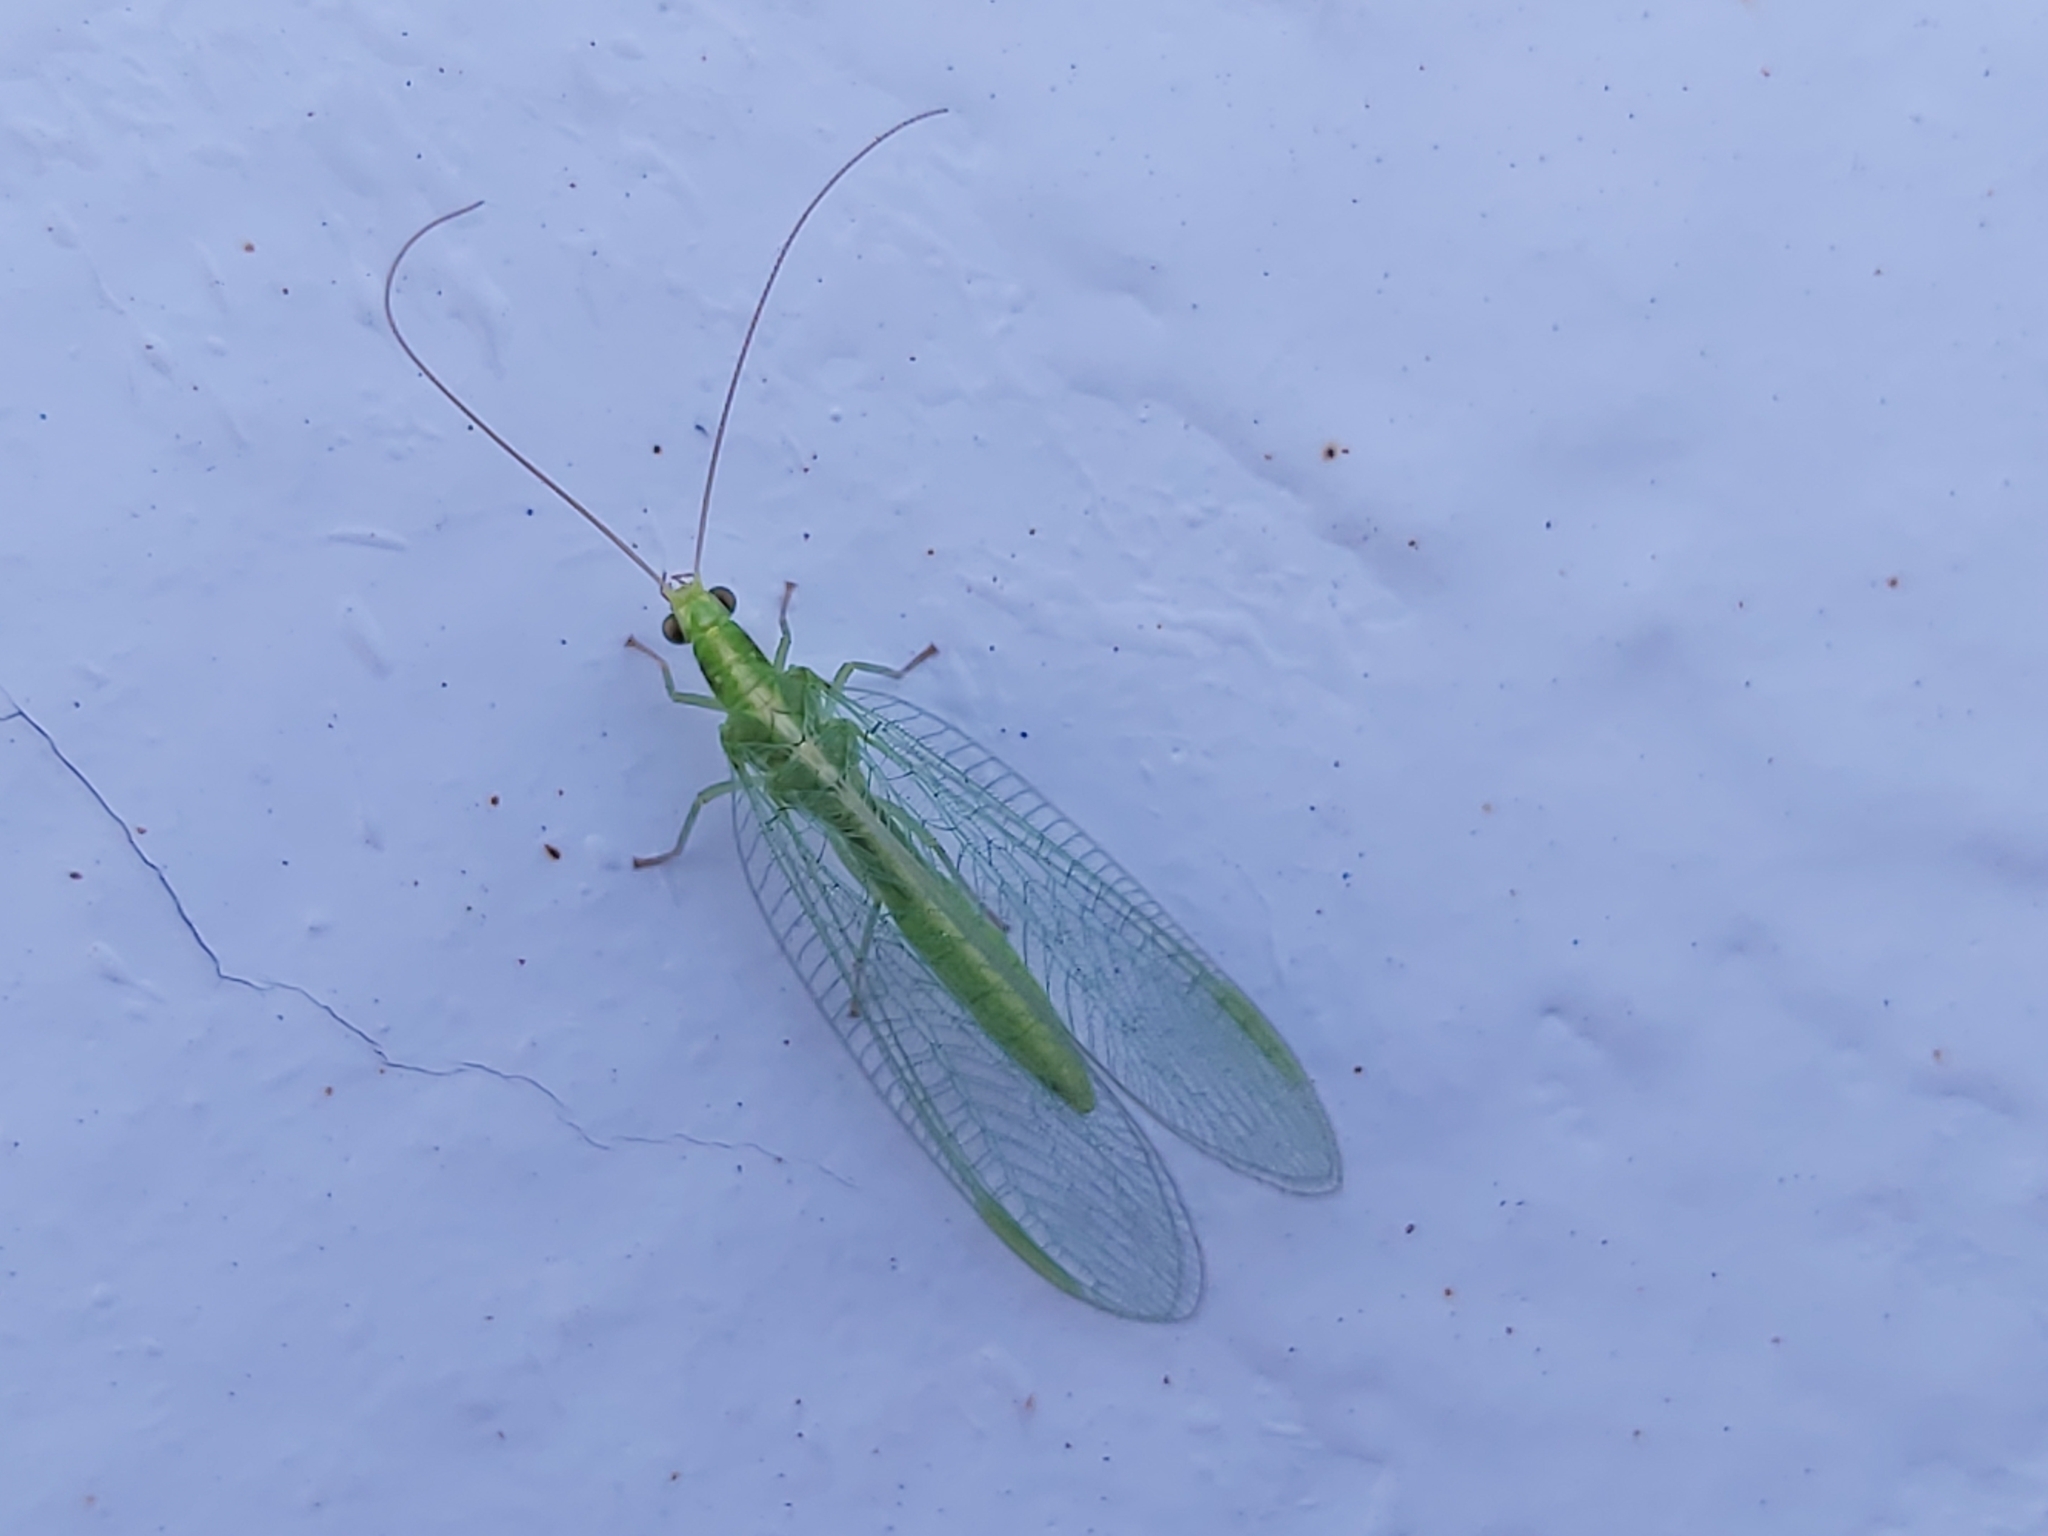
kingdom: Animalia
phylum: Arthropoda
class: Insecta
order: Neuroptera
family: Chrysopidae
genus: Chrysoperla
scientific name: Chrysoperla
